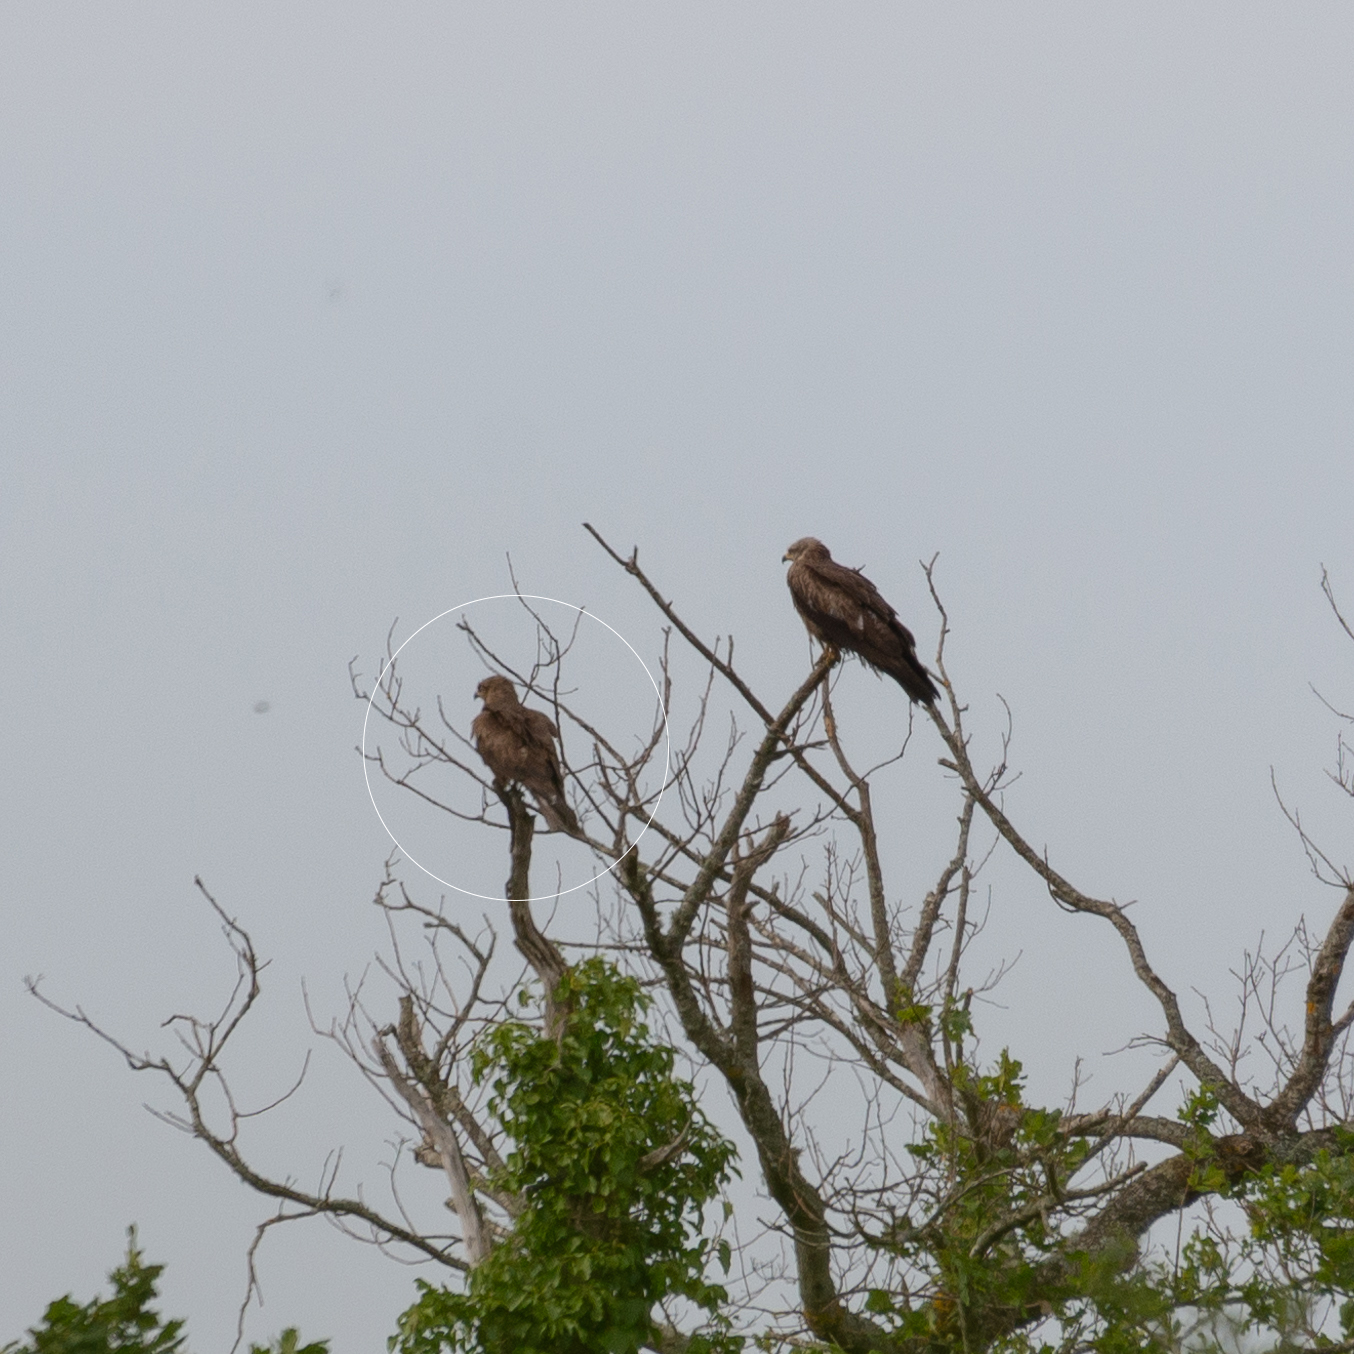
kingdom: Animalia
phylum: Chordata
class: Aves
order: Accipitriformes
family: Accipitridae
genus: Milvus
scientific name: Milvus migrans
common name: Black kite
